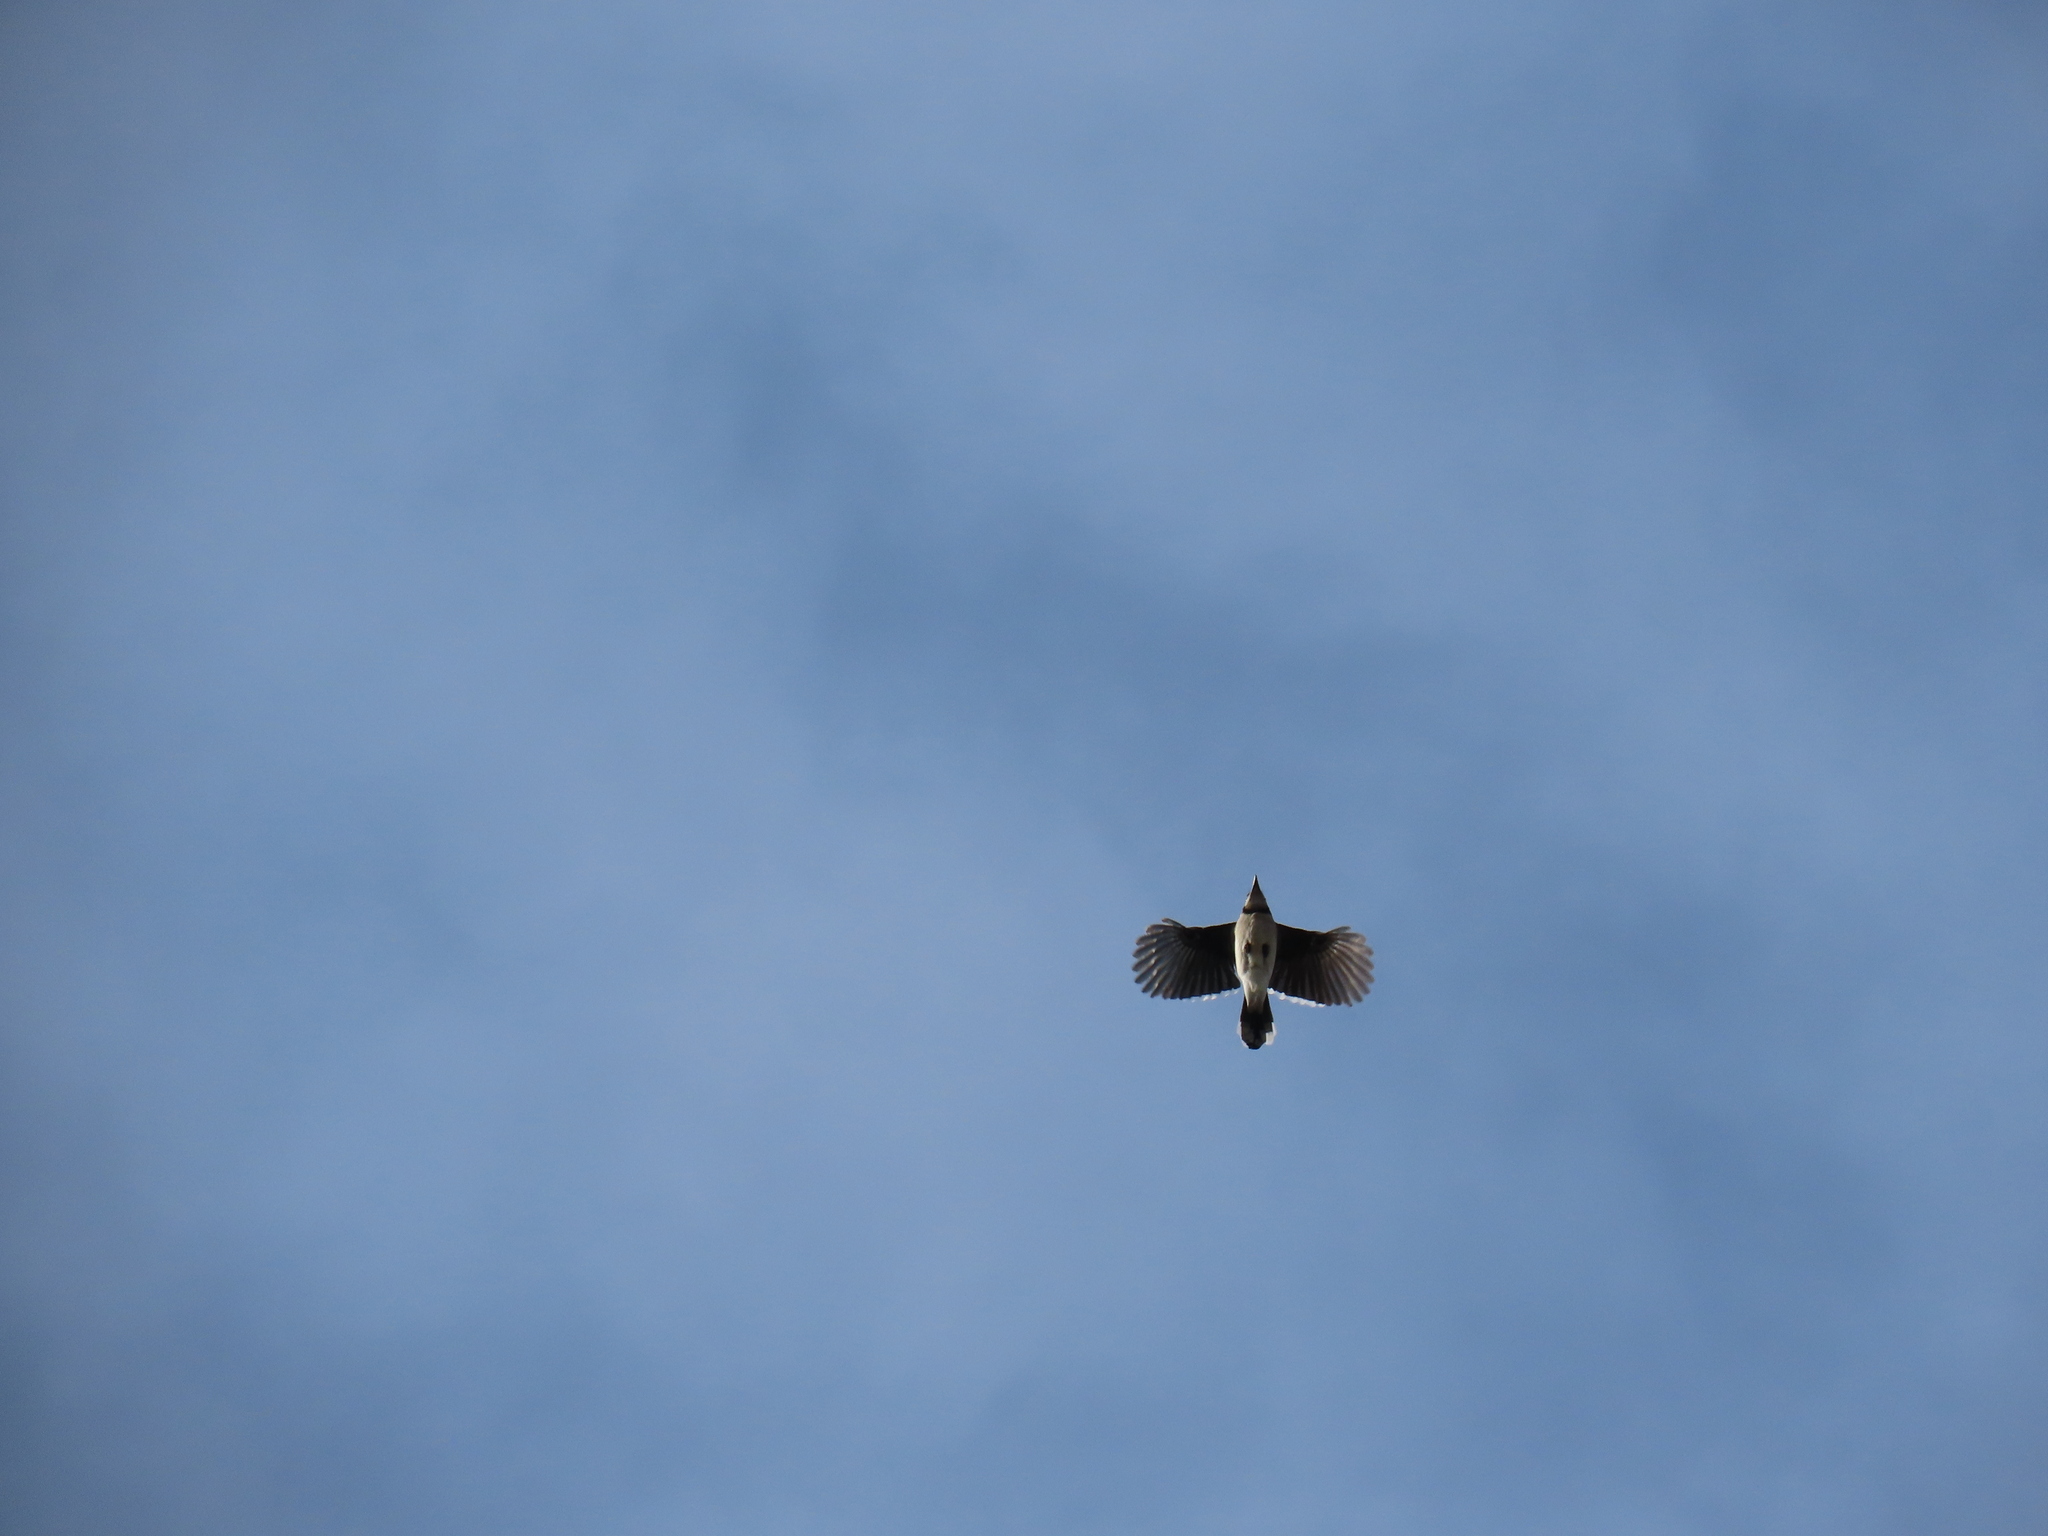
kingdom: Animalia
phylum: Chordata
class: Aves
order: Passeriformes
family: Corvidae
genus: Cyanocitta
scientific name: Cyanocitta cristata
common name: Blue jay
